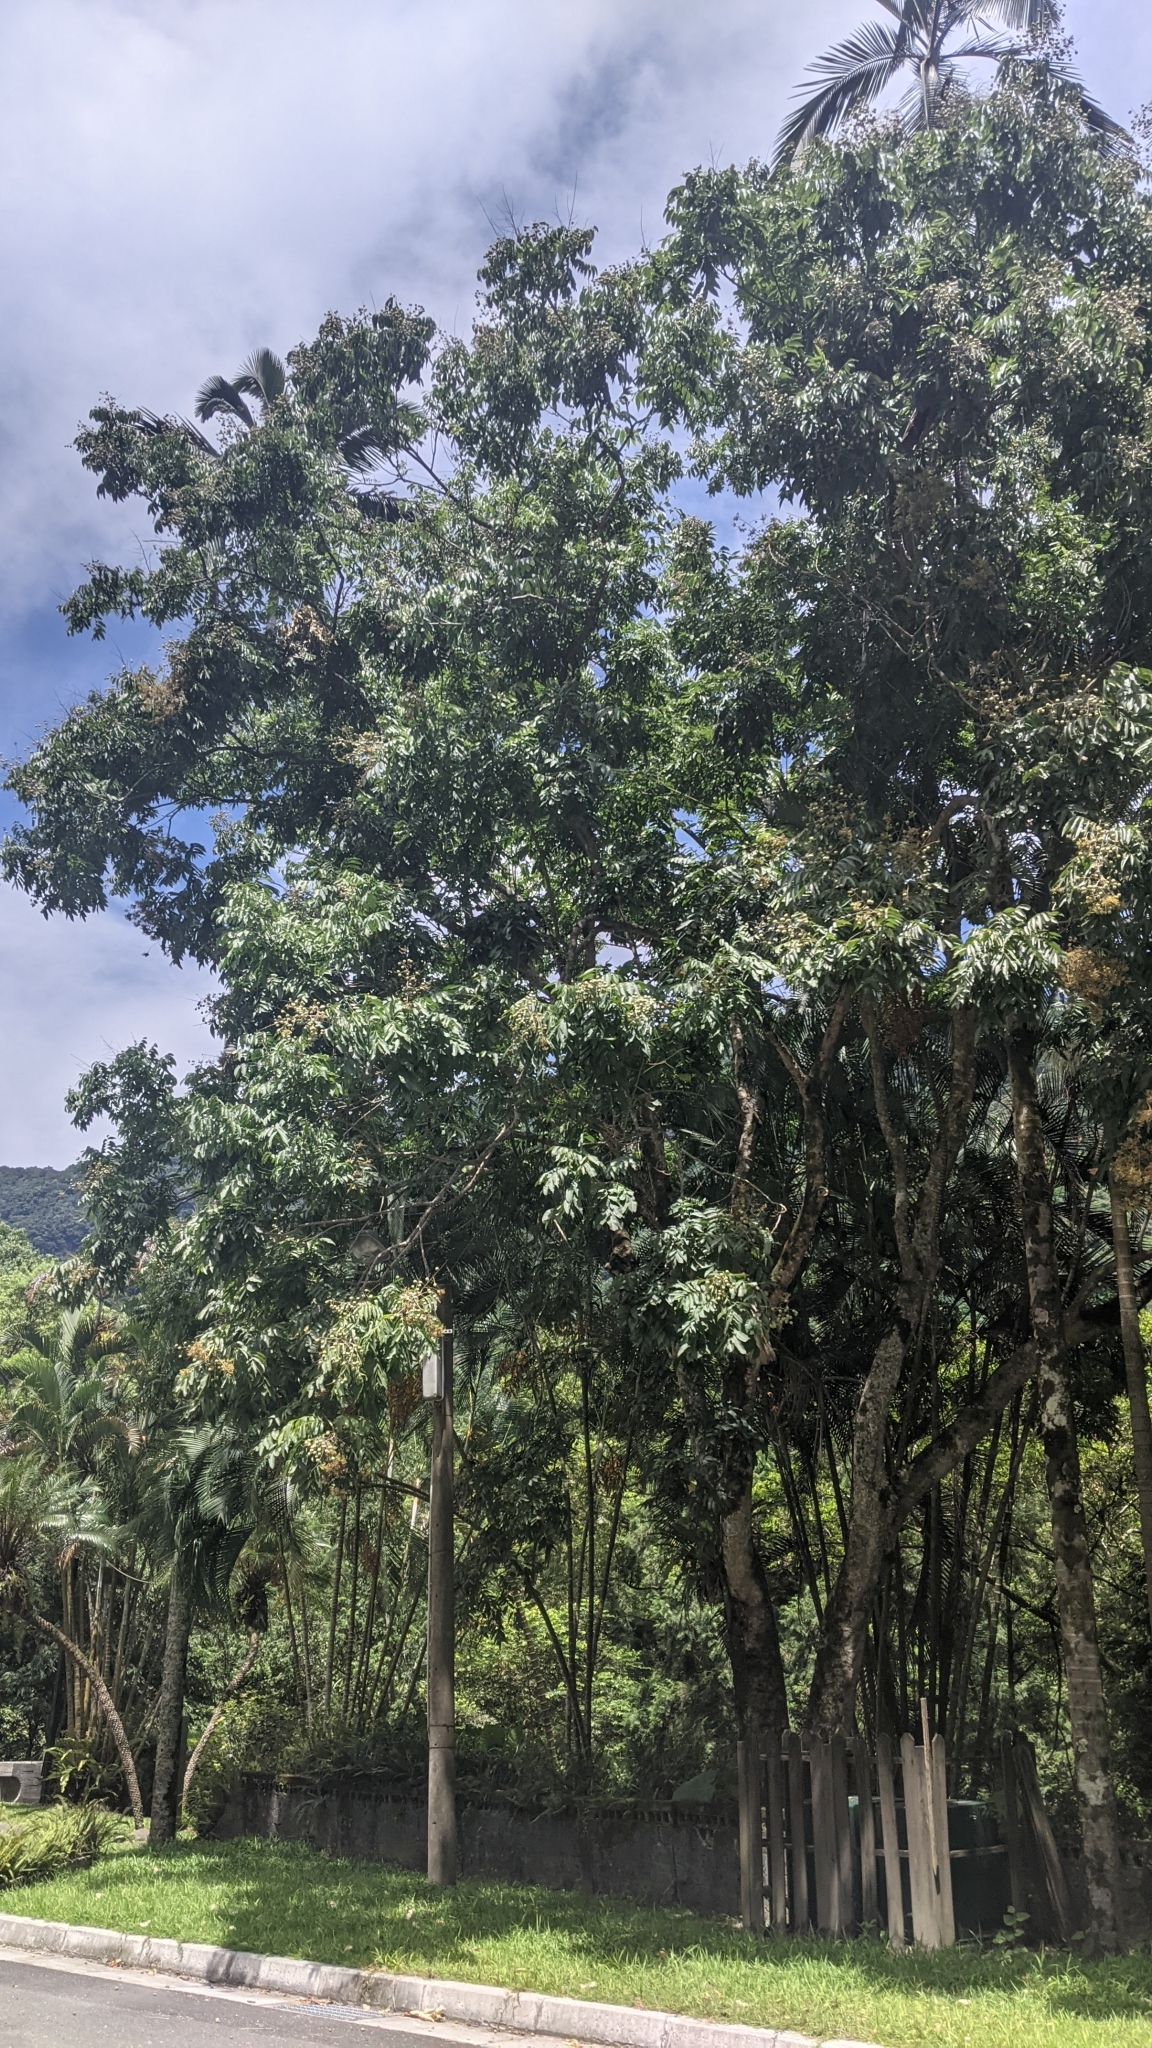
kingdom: Plantae
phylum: Tracheophyta
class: Magnoliopsida
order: Sapindales
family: Sapindaceae
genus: Sapindus
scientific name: Sapindus mukorossi
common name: Chinese soapberry
